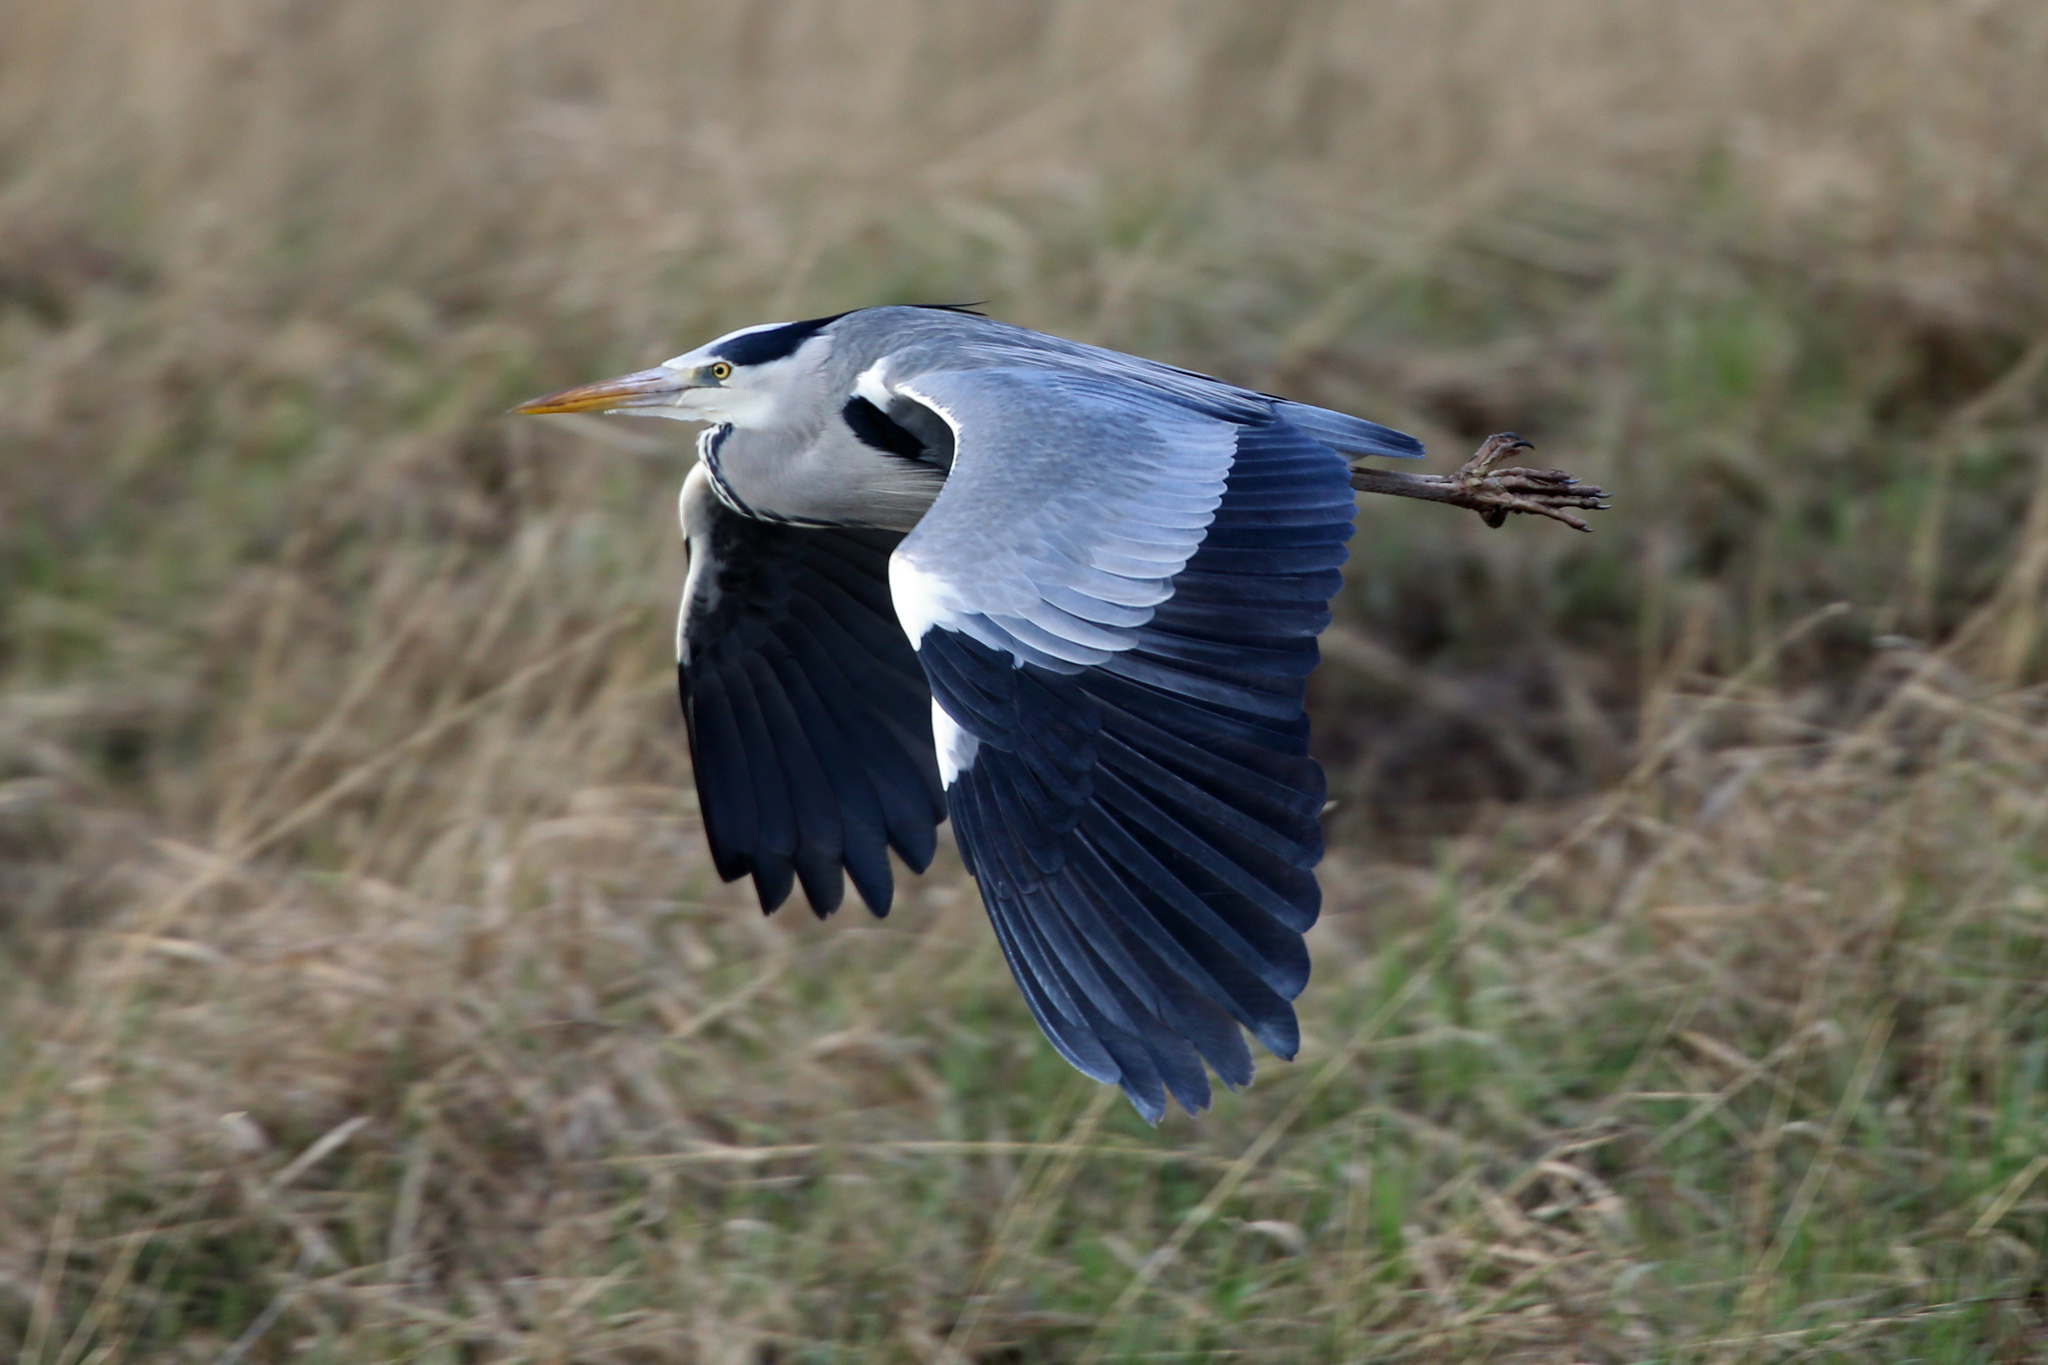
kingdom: Animalia
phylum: Chordata
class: Aves
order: Pelecaniformes
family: Ardeidae
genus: Ardea
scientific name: Ardea cinerea
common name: Grey heron
